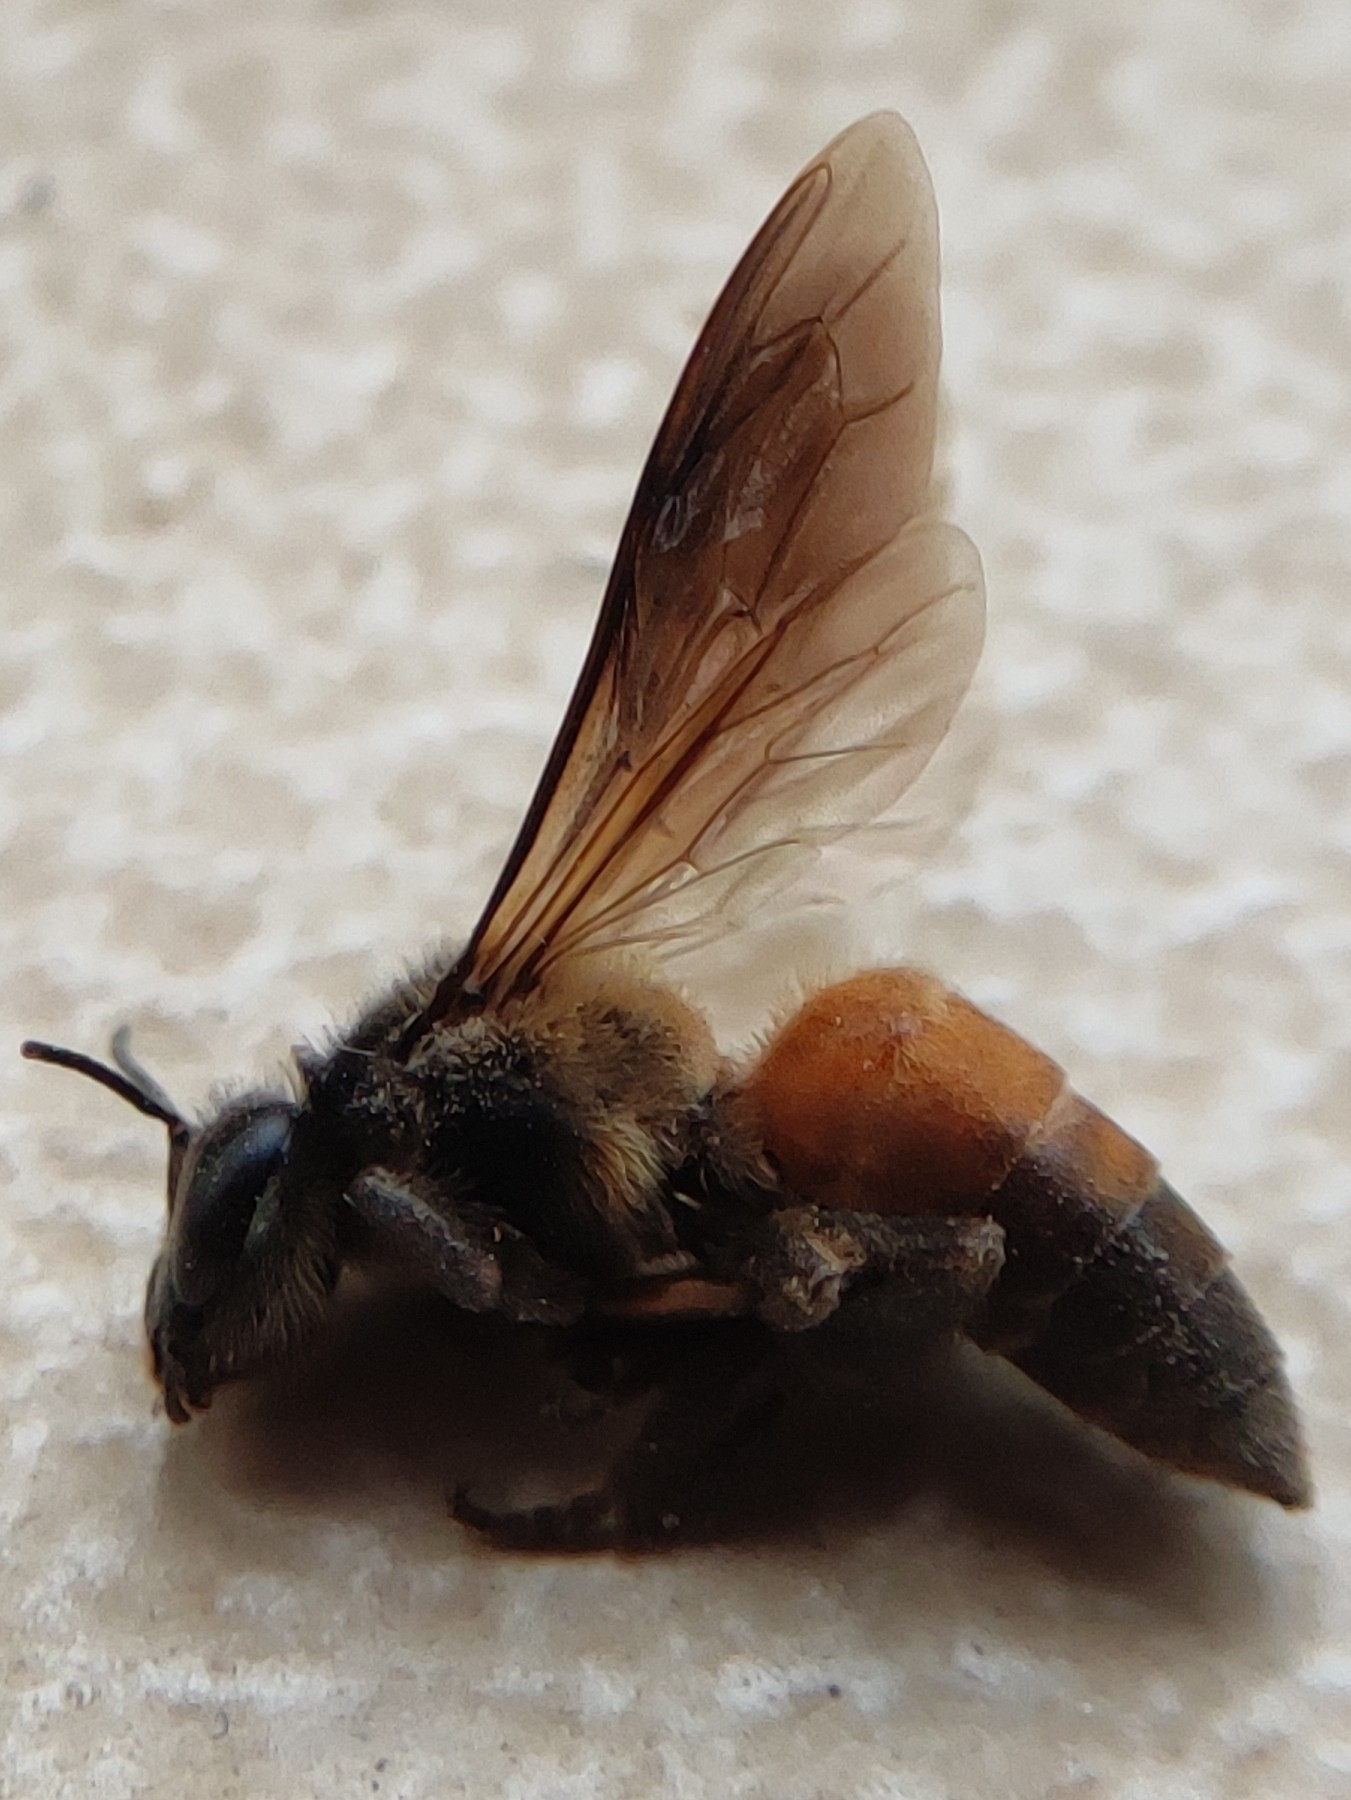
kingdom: Animalia
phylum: Arthropoda
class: Insecta
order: Hymenoptera
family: Apidae
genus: Apis
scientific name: Apis dorsata
